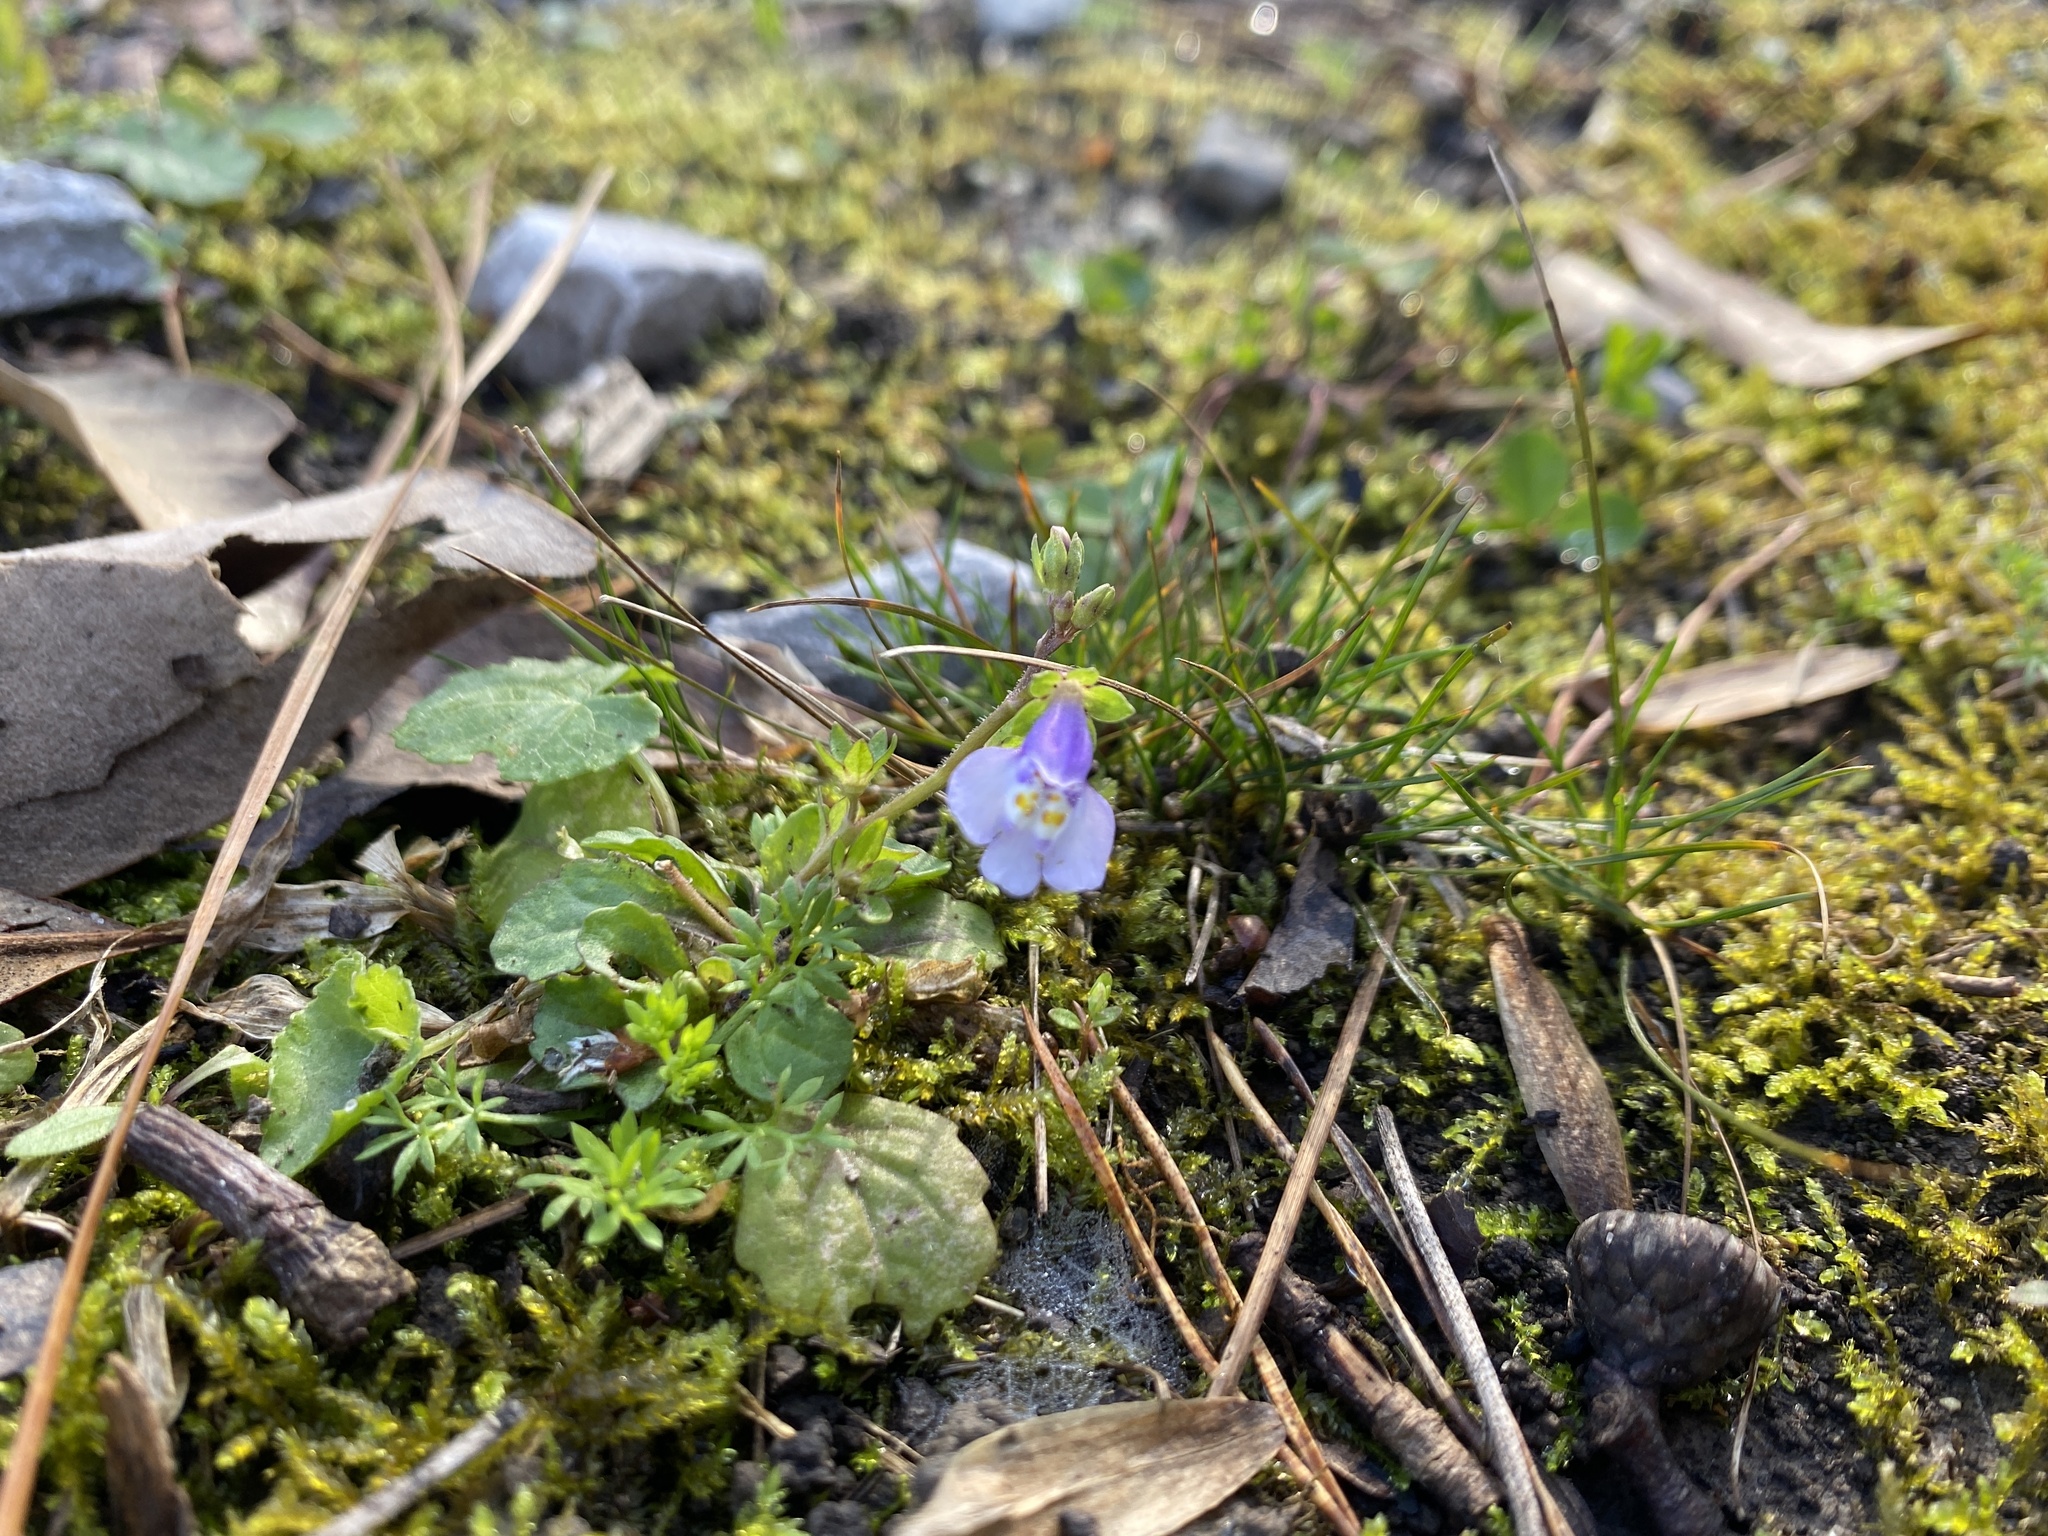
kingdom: Plantae
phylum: Tracheophyta
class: Magnoliopsida
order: Lamiales
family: Mazaceae
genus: Mazus
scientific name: Mazus pumilus
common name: Japanese mazus
